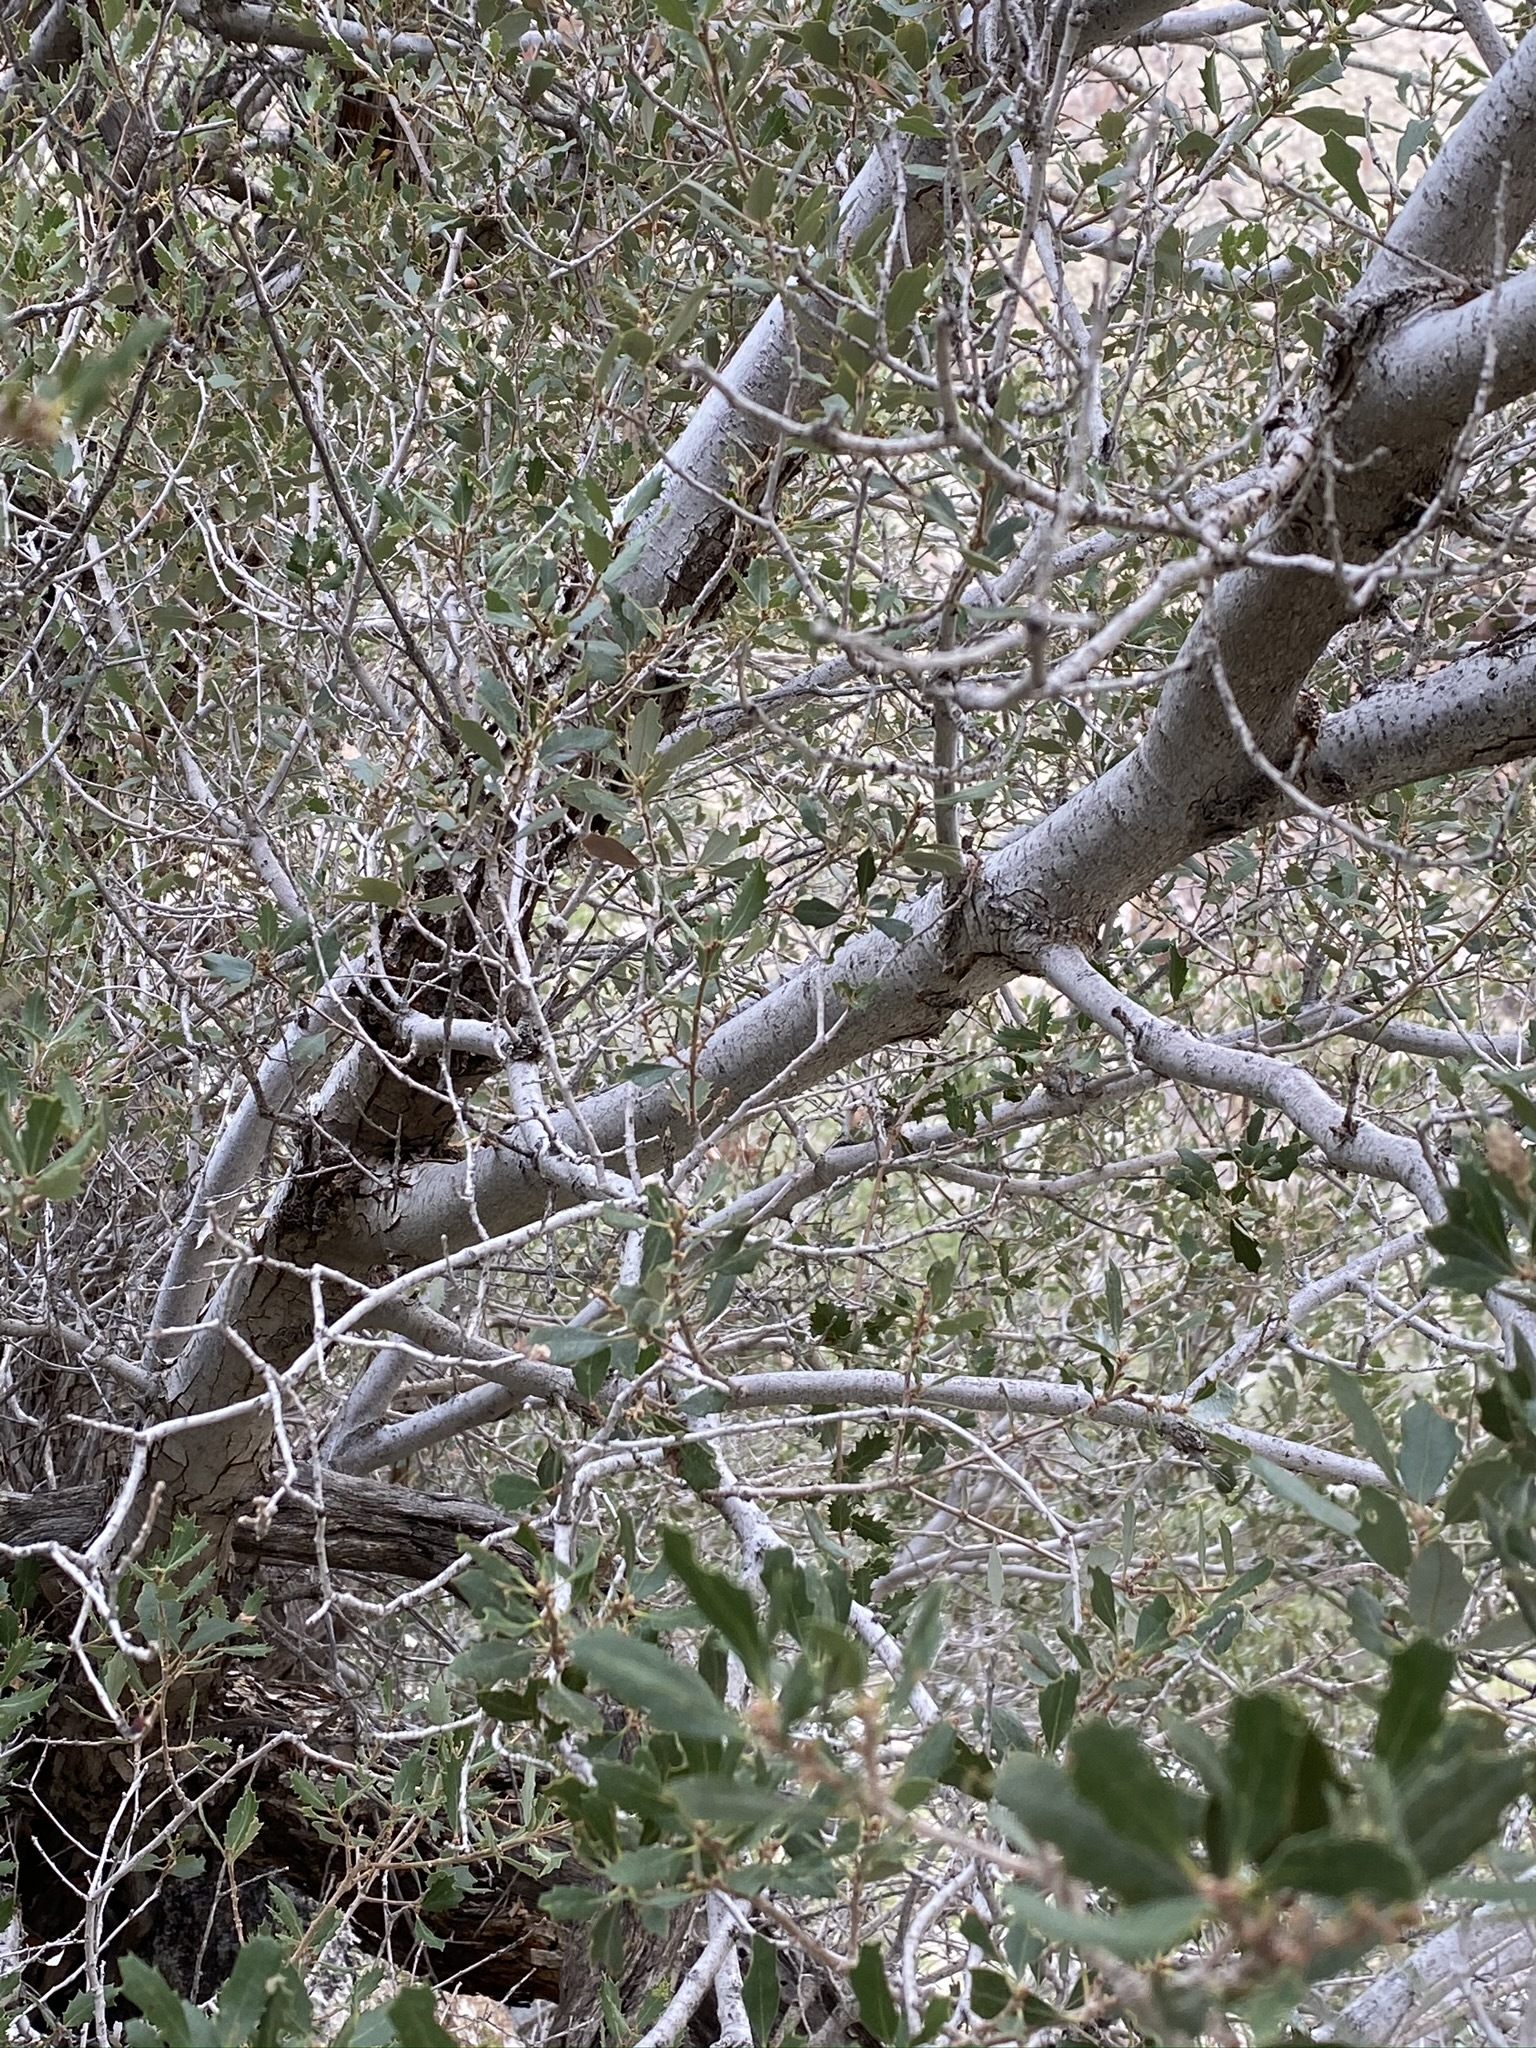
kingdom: Plantae
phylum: Tracheophyta
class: Magnoliopsida
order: Fagales
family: Fagaceae
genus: Quercus
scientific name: Quercus cornelius-mulleri
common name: Muller oak
